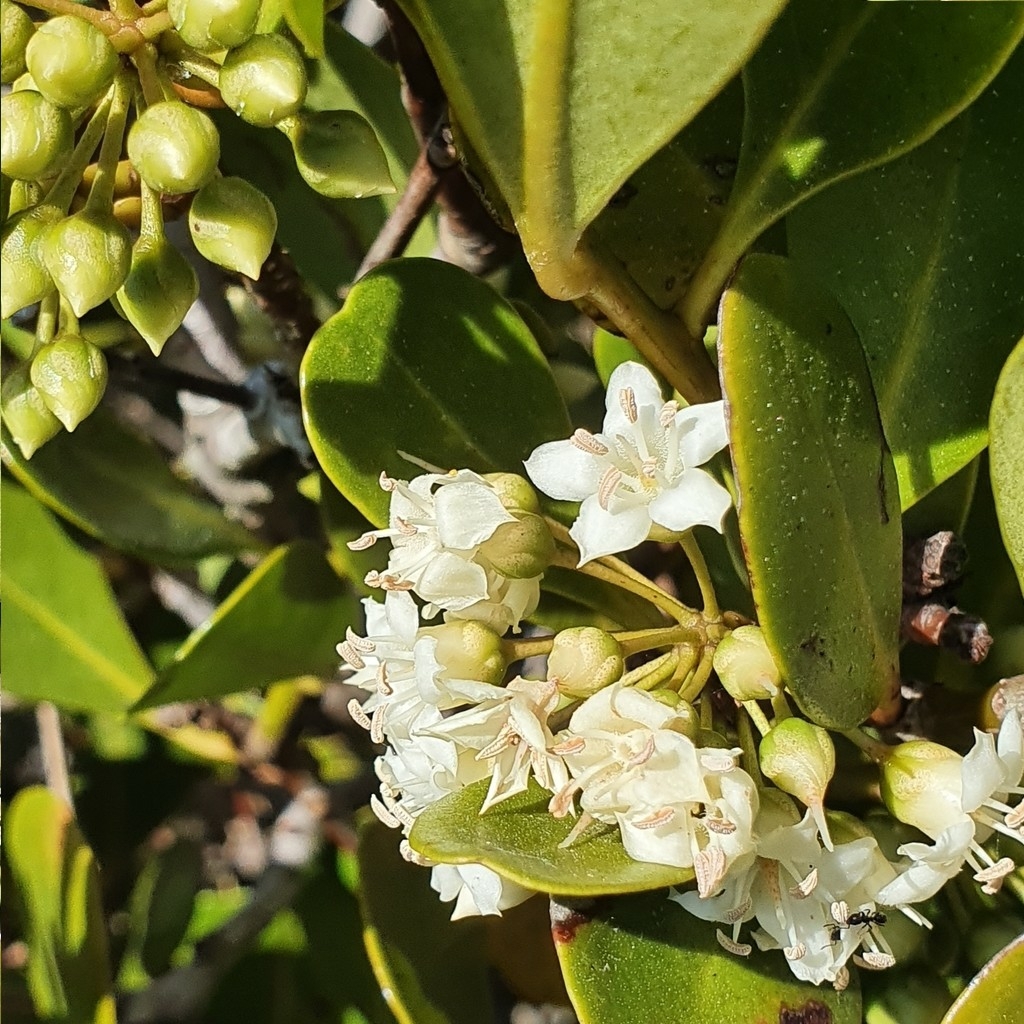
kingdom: Plantae
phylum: Tracheophyta
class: Magnoliopsida
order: Ericales
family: Primulaceae
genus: Aegiceras
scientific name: Aegiceras corniculatum
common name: River mangrove
